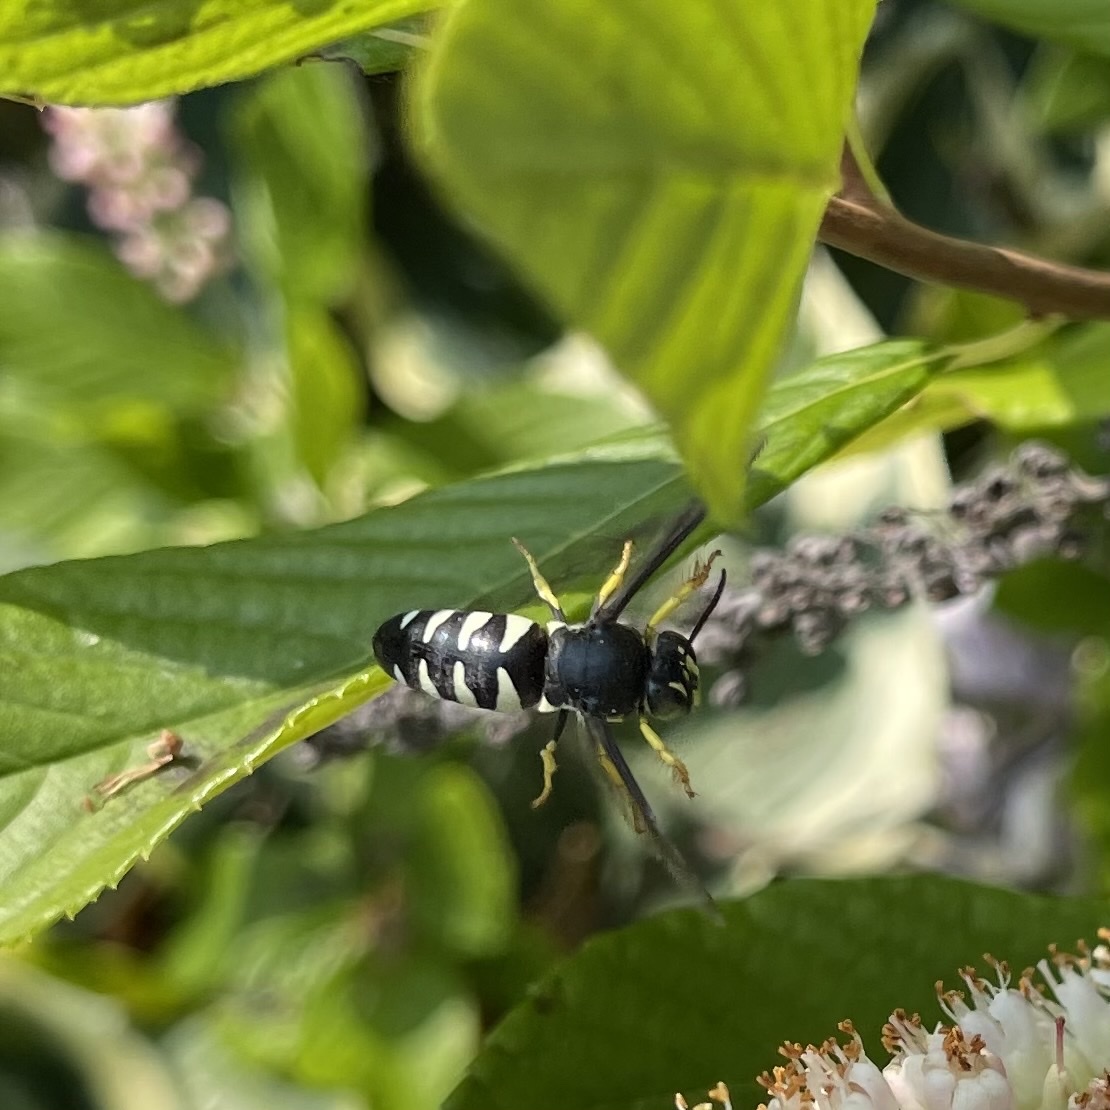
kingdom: Animalia
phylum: Arthropoda
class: Insecta
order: Hymenoptera
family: Crabronidae
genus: Bicyrtes
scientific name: Bicyrtes quadrifasciatus
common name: Four-banded stink bug hunter wasp
